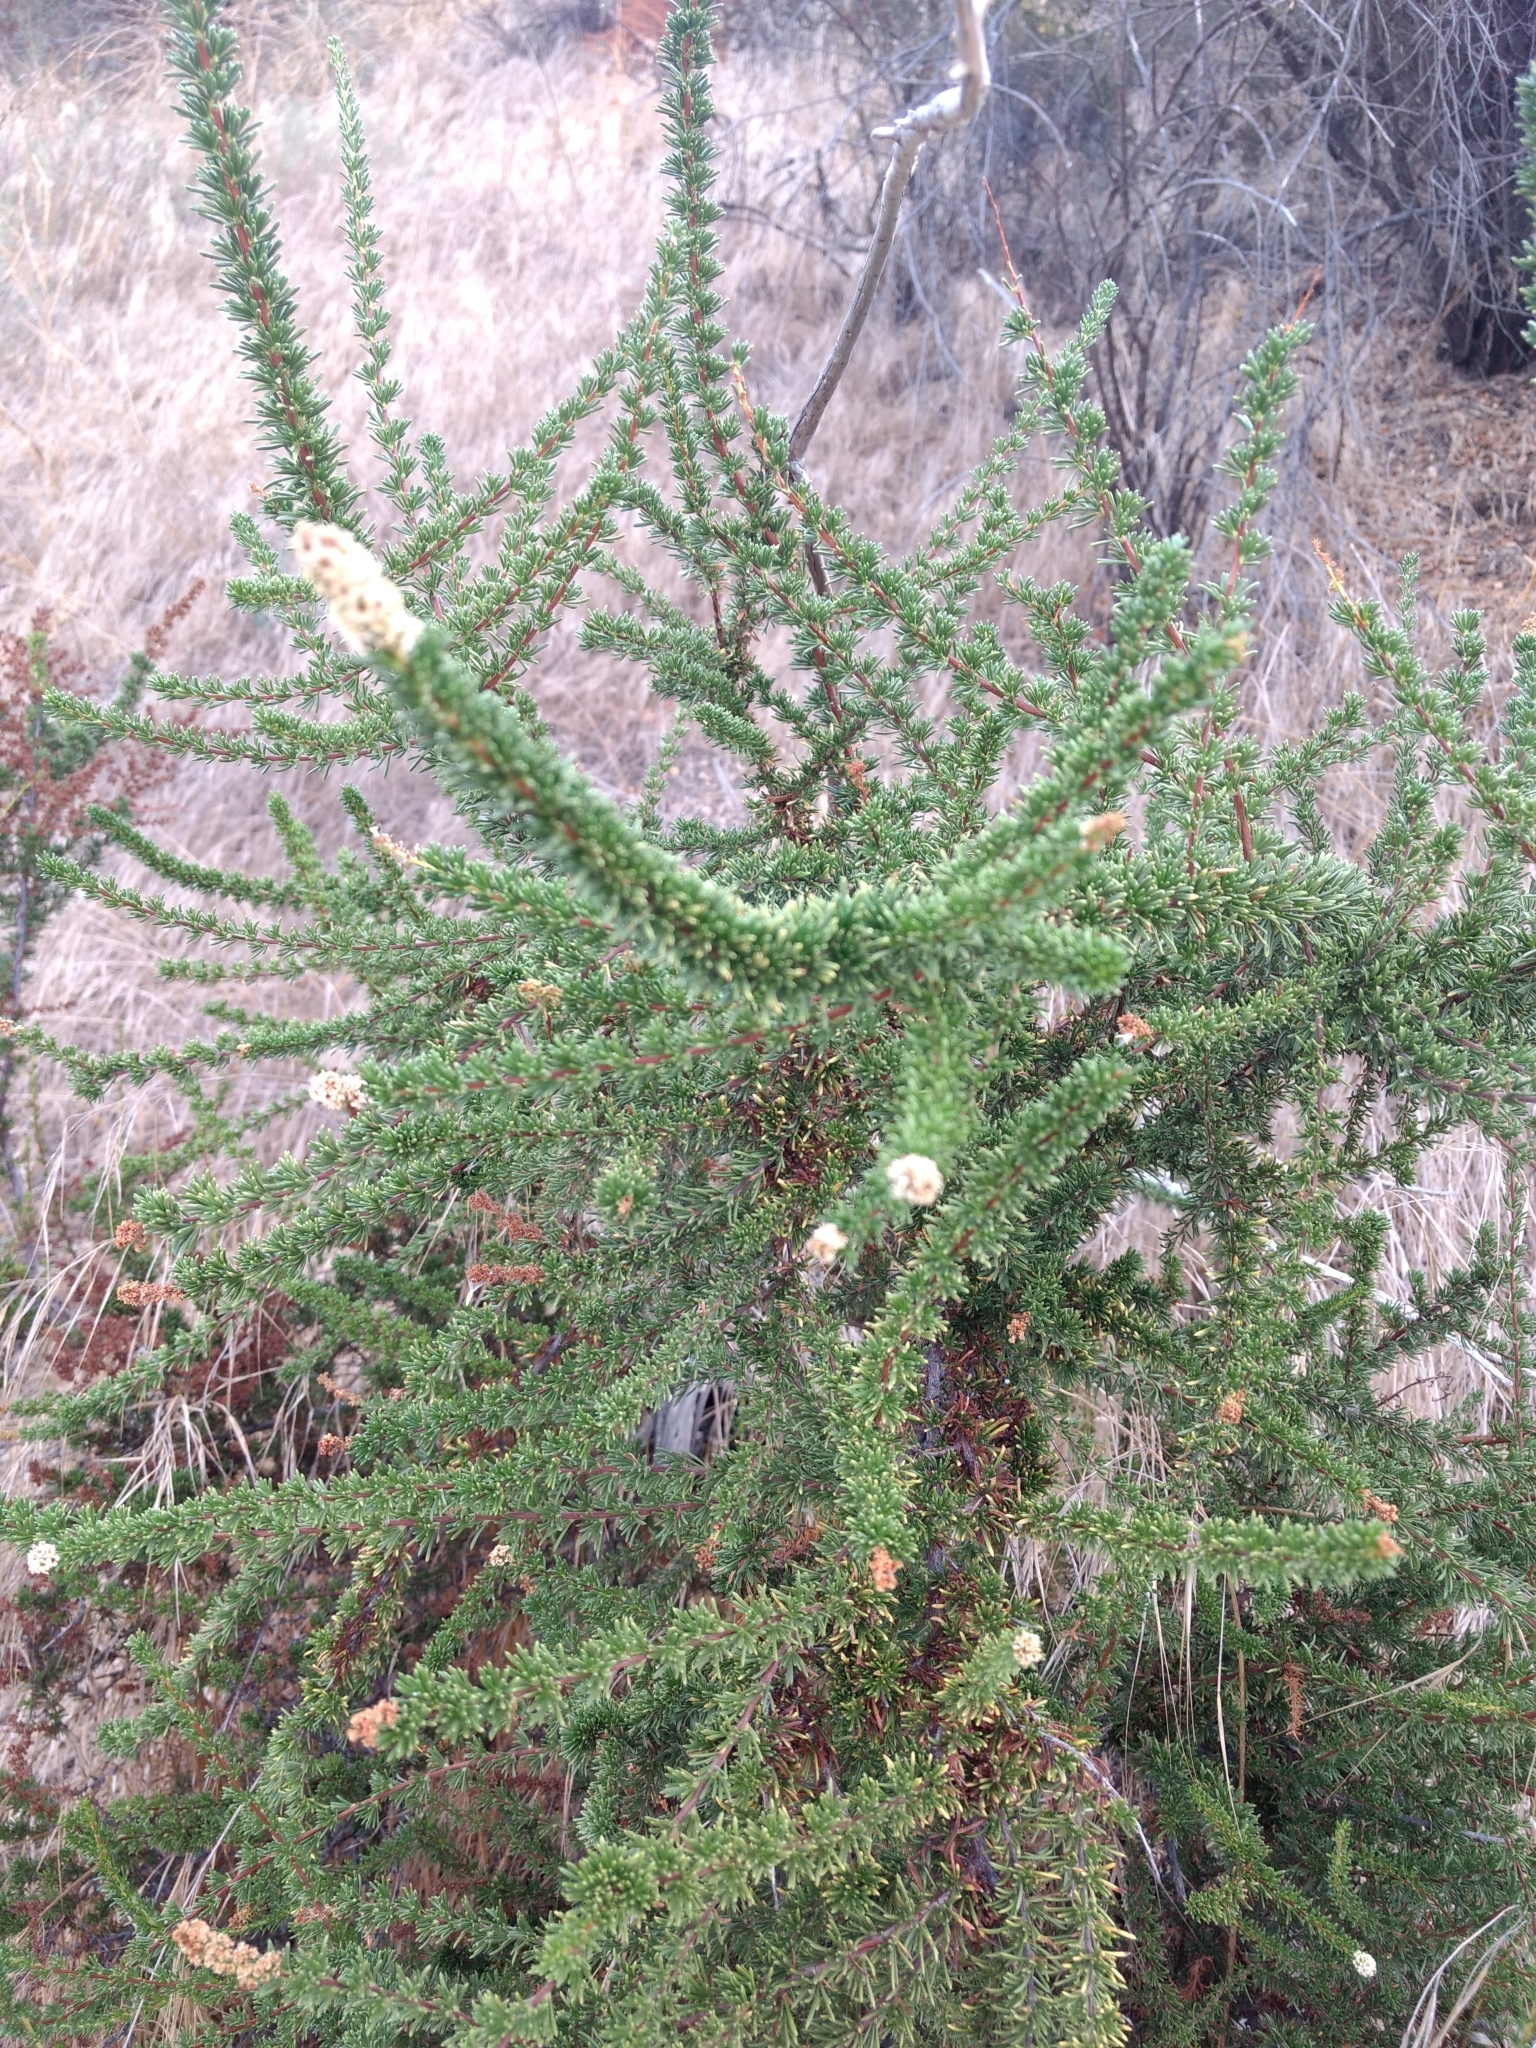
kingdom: Plantae
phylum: Tracheophyta
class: Magnoliopsida
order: Rosales
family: Rosaceae
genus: Adenostoma
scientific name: Adenostoma fasciculatum
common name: Chamise
